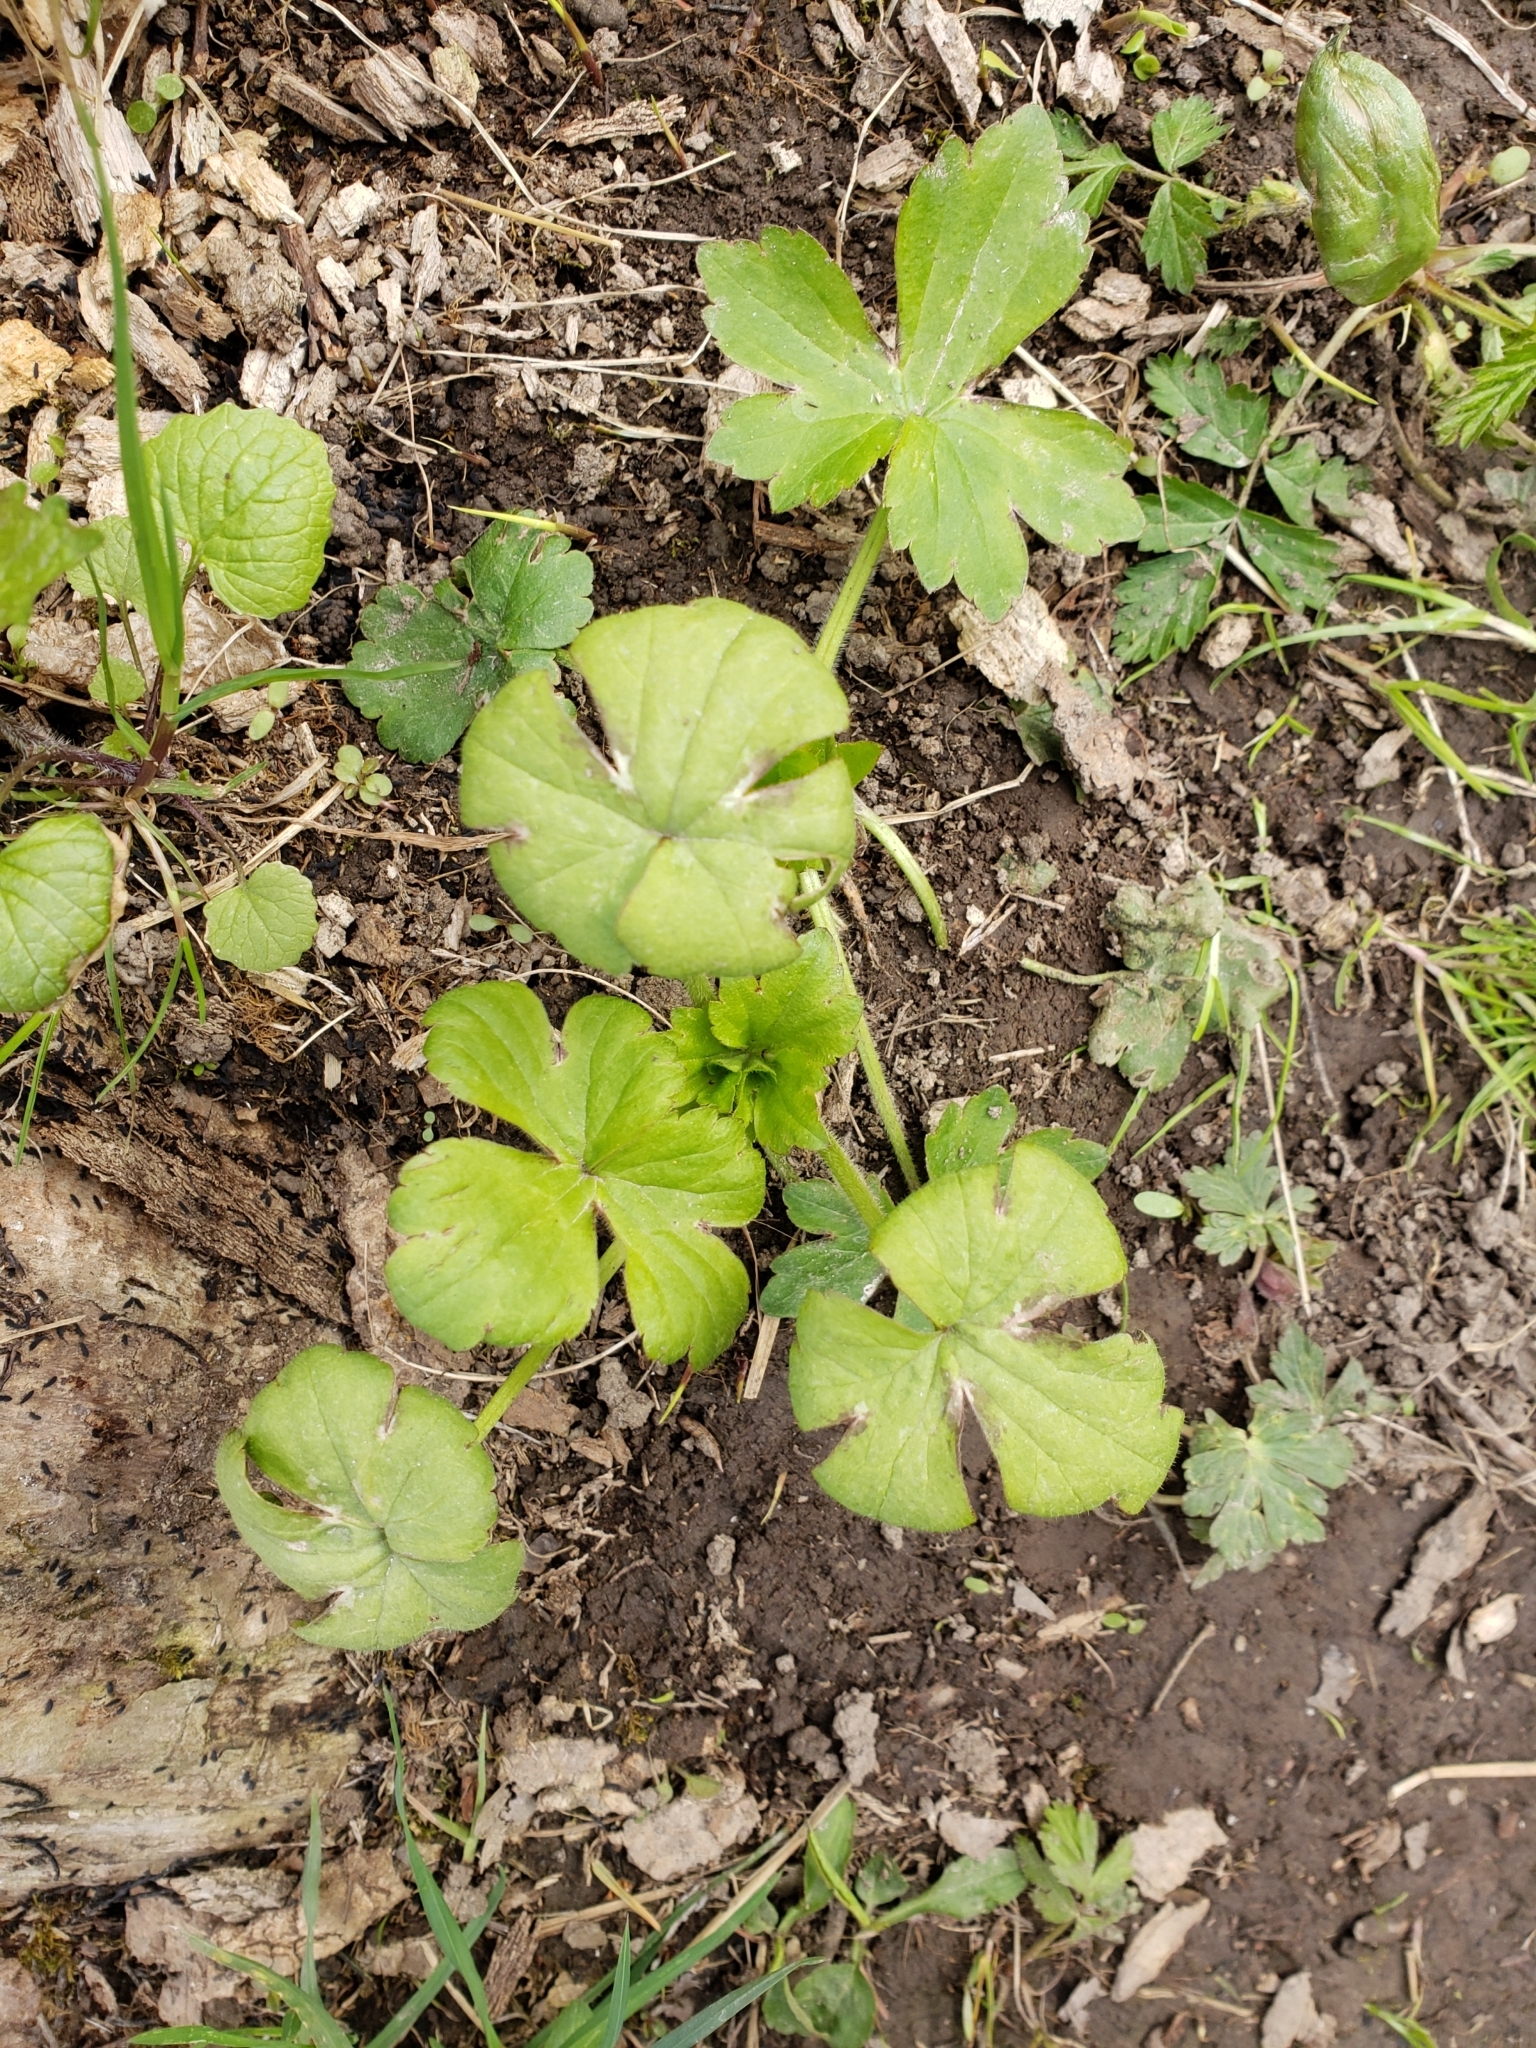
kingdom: Plantae
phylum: Tracheophyta
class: Magnoliopsida
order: Ranunculales
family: Ranunculaceae
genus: Ranunculus
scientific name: Ranunculus recurvatus
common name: Blisterwort
